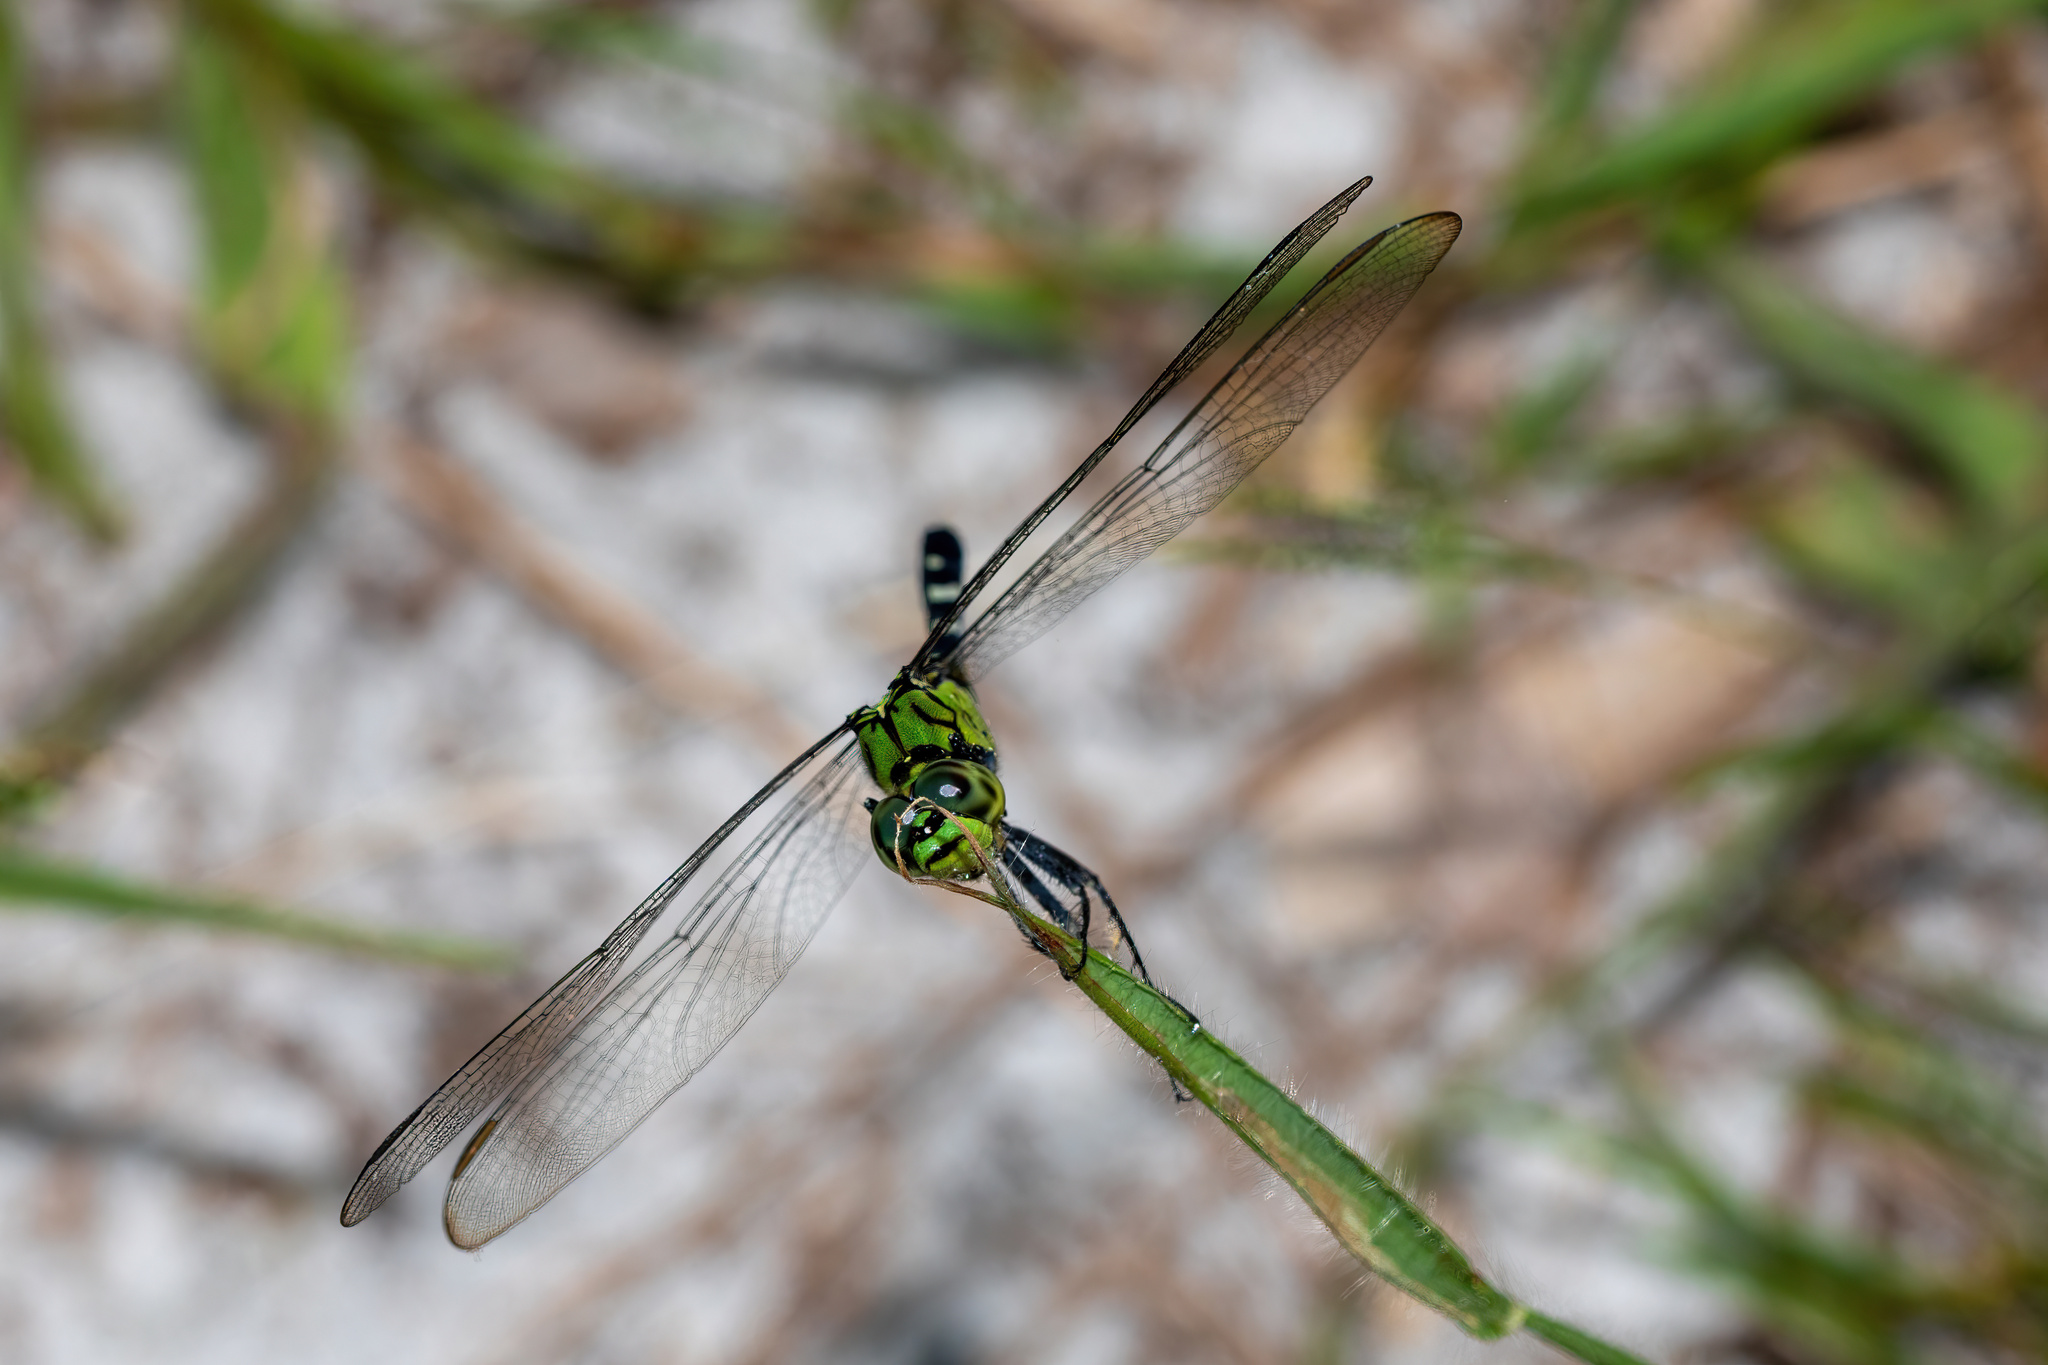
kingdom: Animalia
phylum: Arthropoda
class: Insecta
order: Odonata
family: Libellulidae
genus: Erythemis
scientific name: Erythemis simplicicollis
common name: Eastern pondhawk
